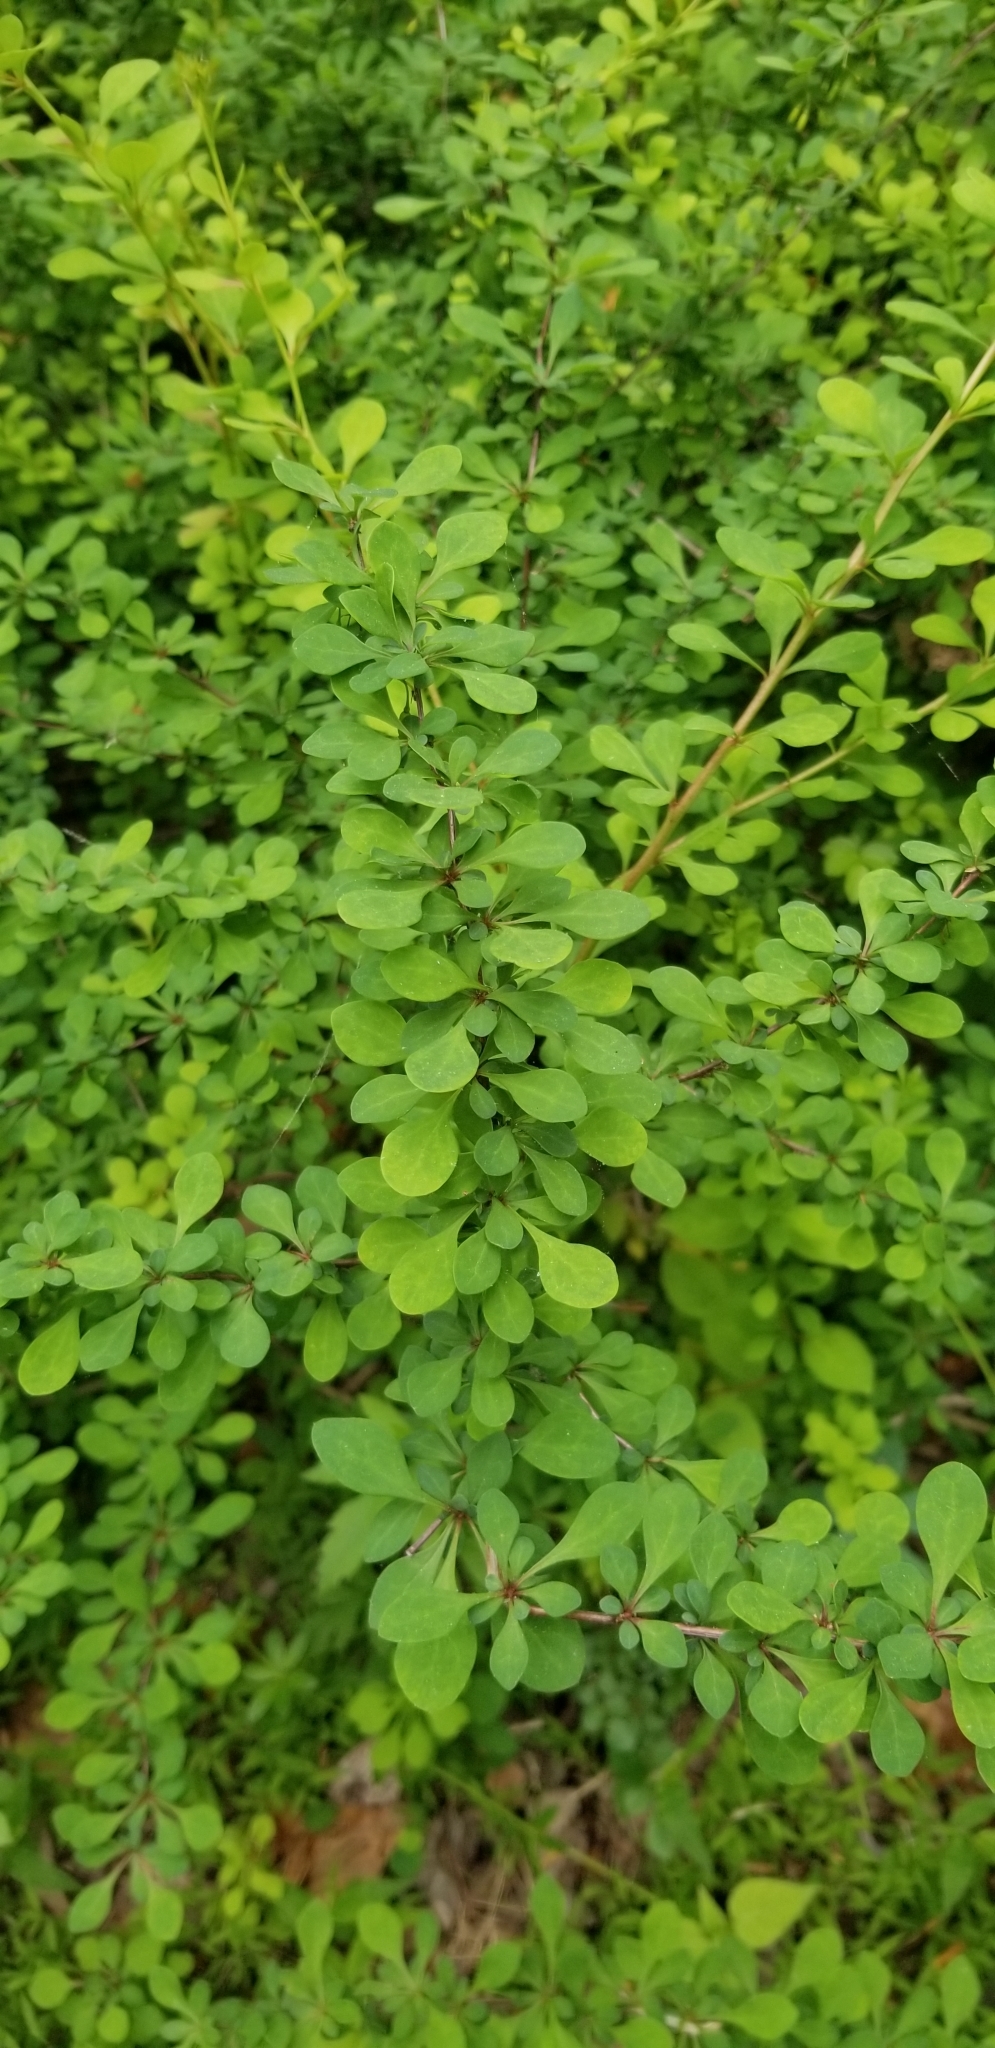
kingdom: Plantae
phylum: Tracheophyta
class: Magnoliopsida
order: Ranunculales
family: Berberidaceae
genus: Berberis
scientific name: Berberis thunbergii
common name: Japanese barberry
